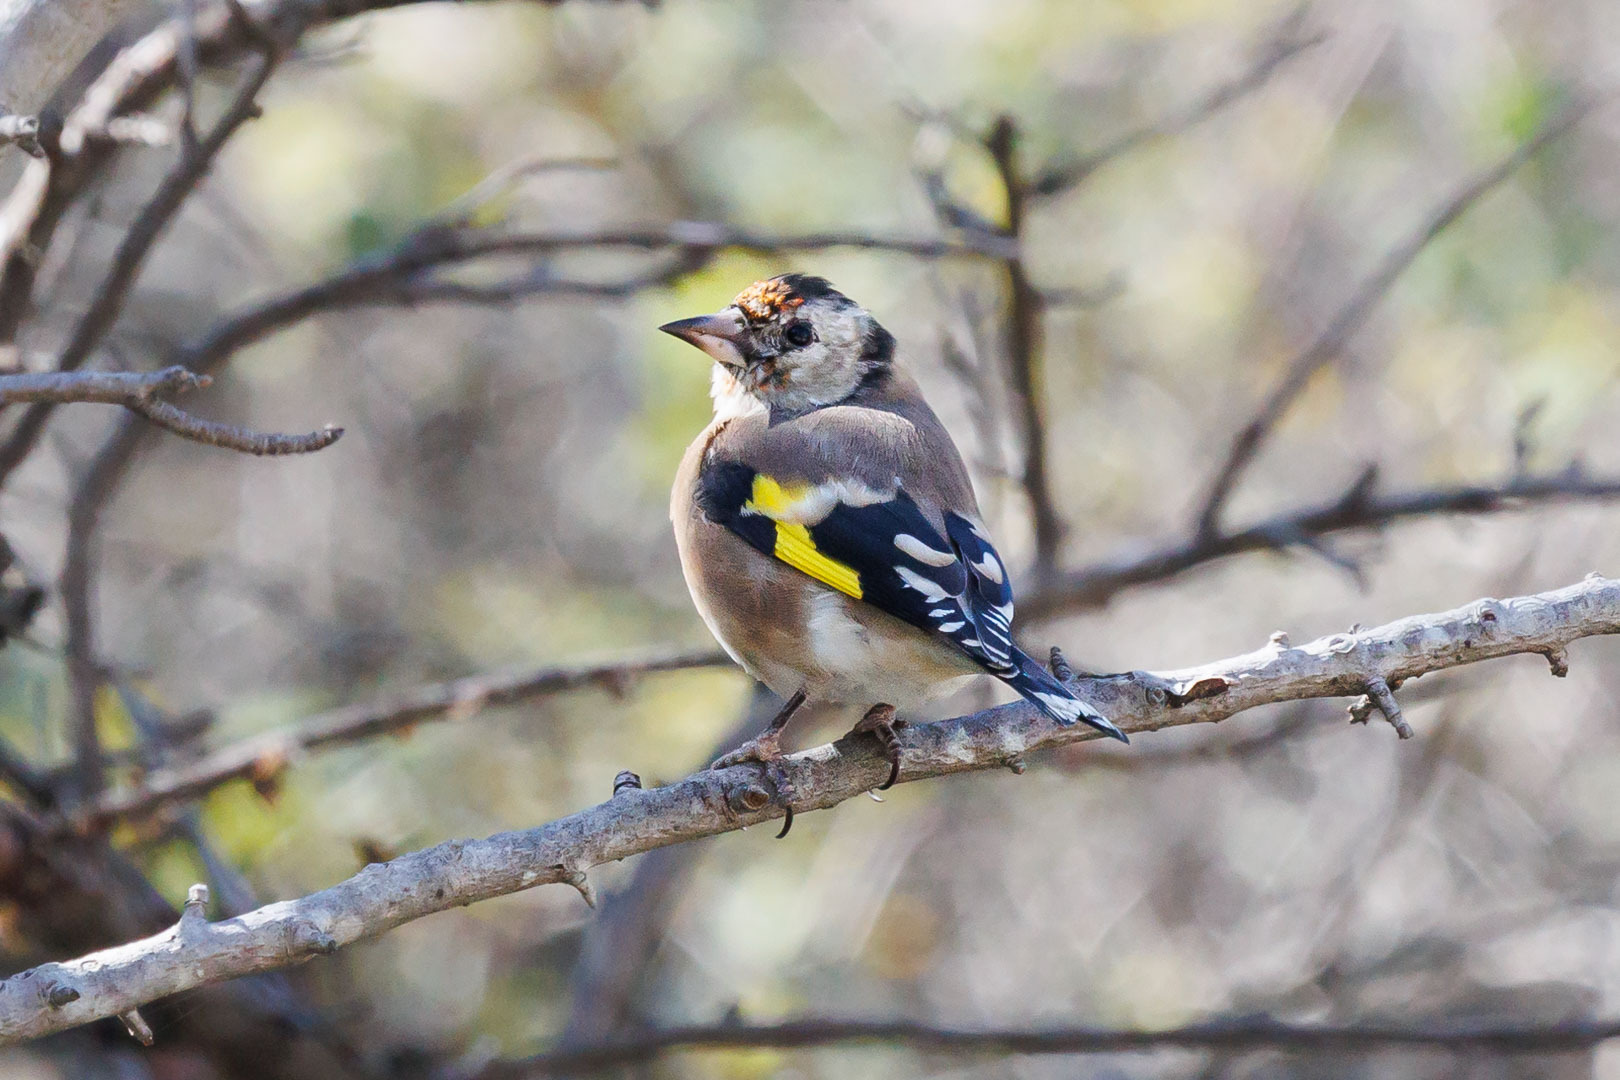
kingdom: Animalia
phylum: Chordata
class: Aves
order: Passeriformes
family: Fringillidae
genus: Carduelis
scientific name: Carduelis carduelis
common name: European goldfinch
